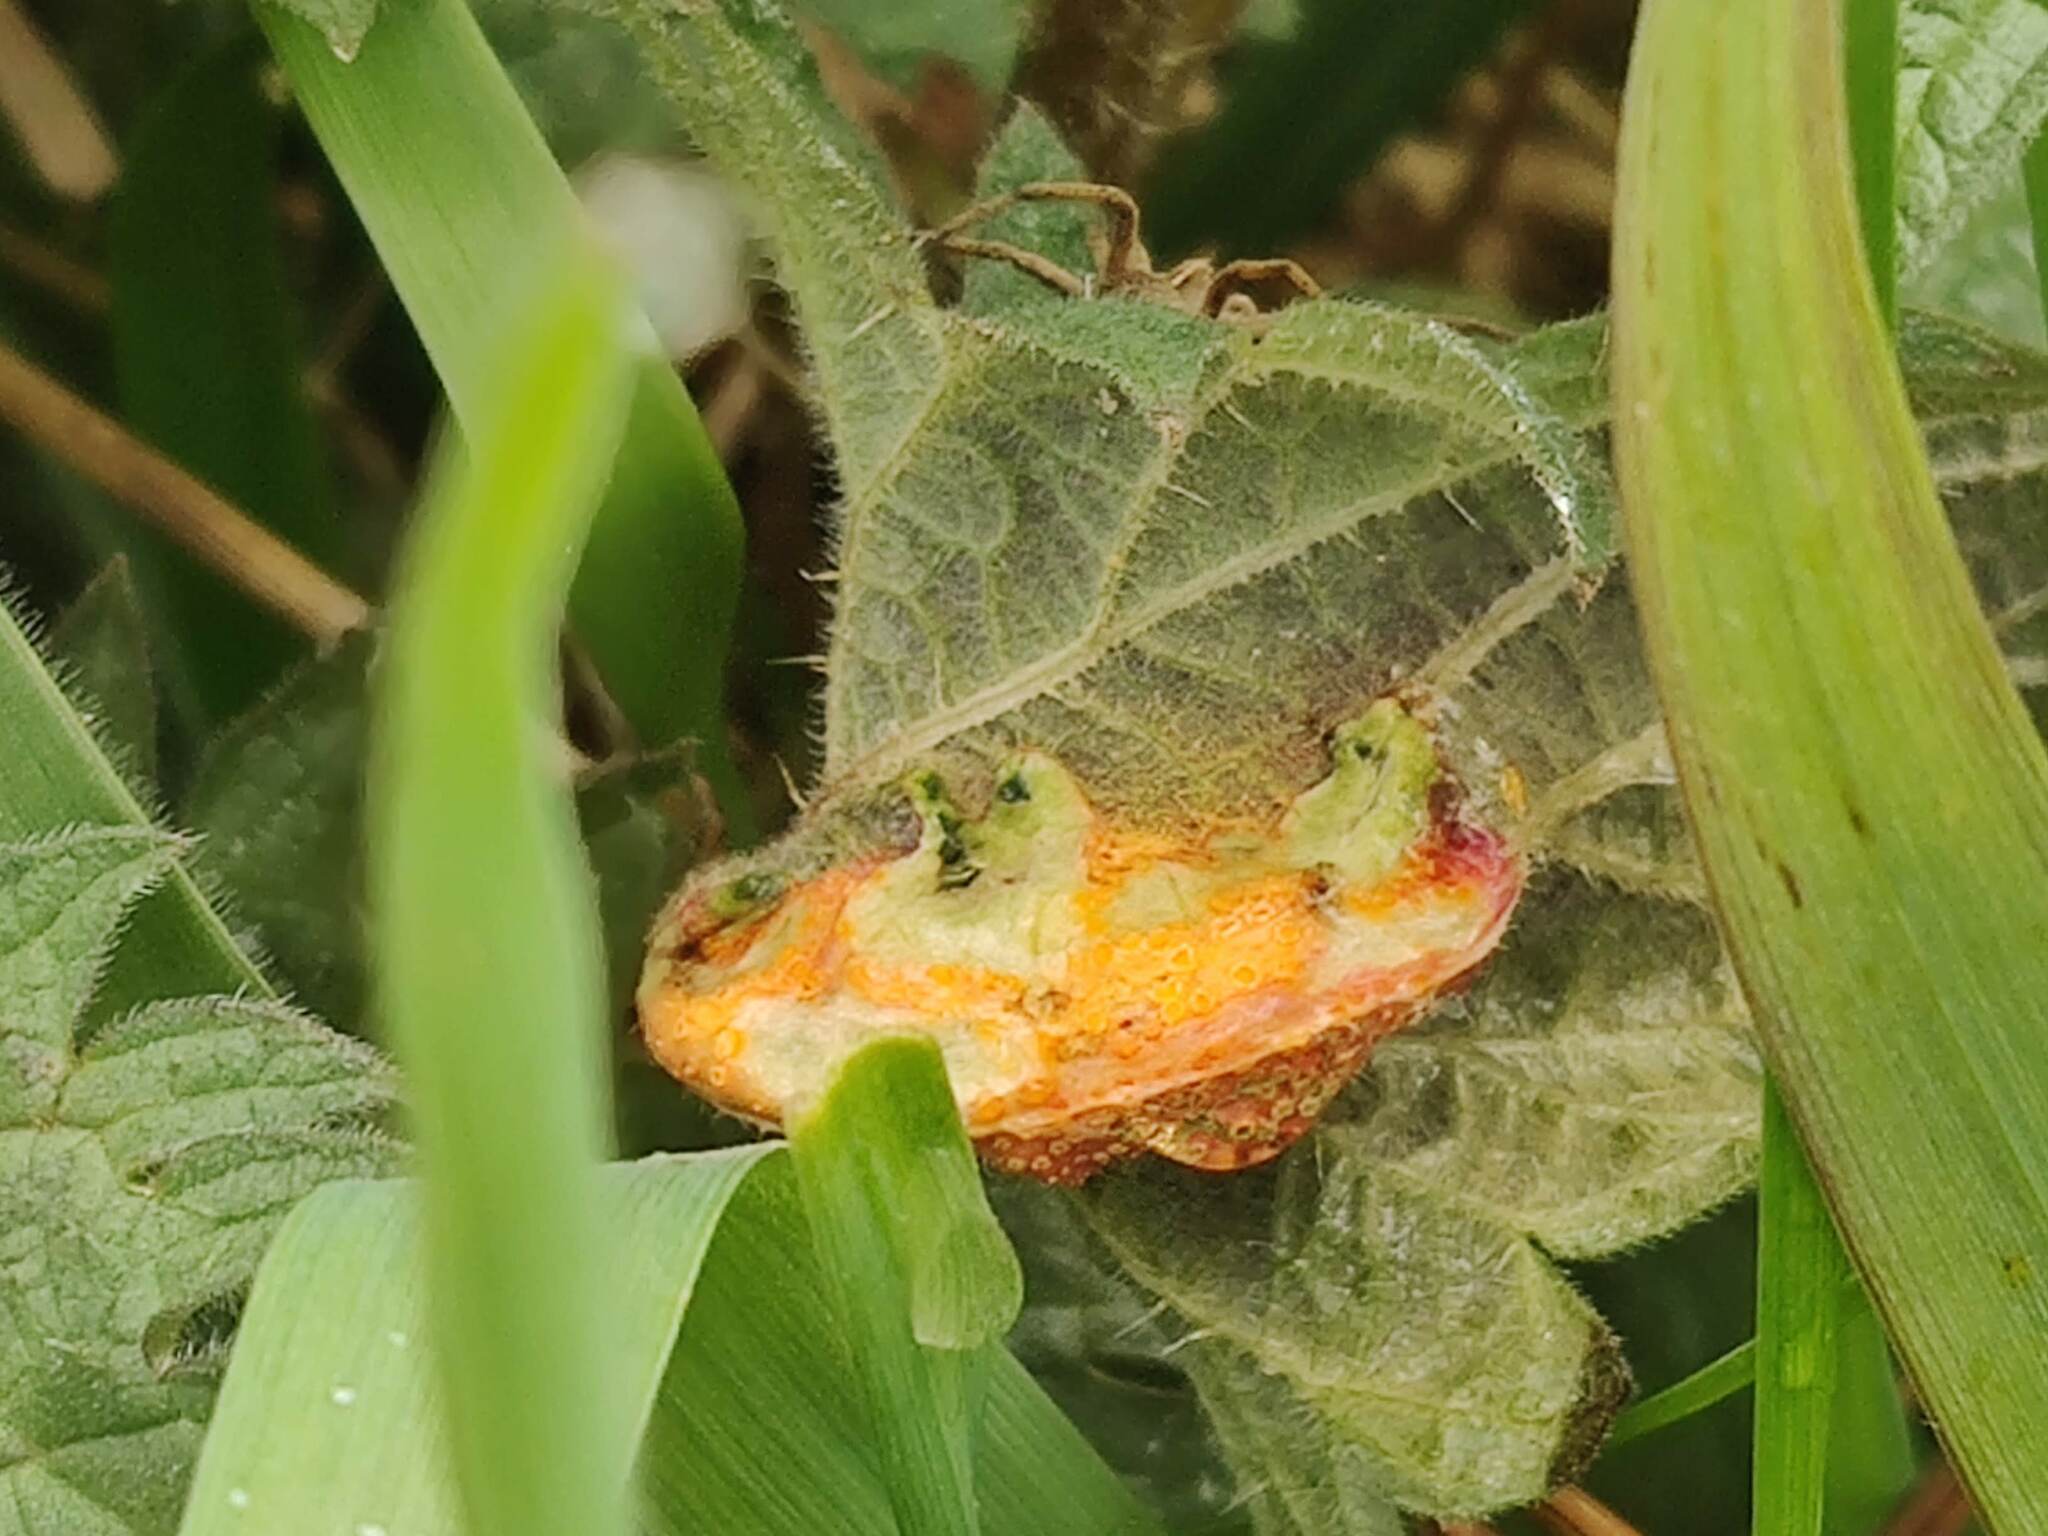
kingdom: Fungi
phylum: Basidiomycota
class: Pucciniomycetes
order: Pucciniales
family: Pucciniaceae
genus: Puccinia
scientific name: Puccinia urticata
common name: Nettle clustercup rust fungus
